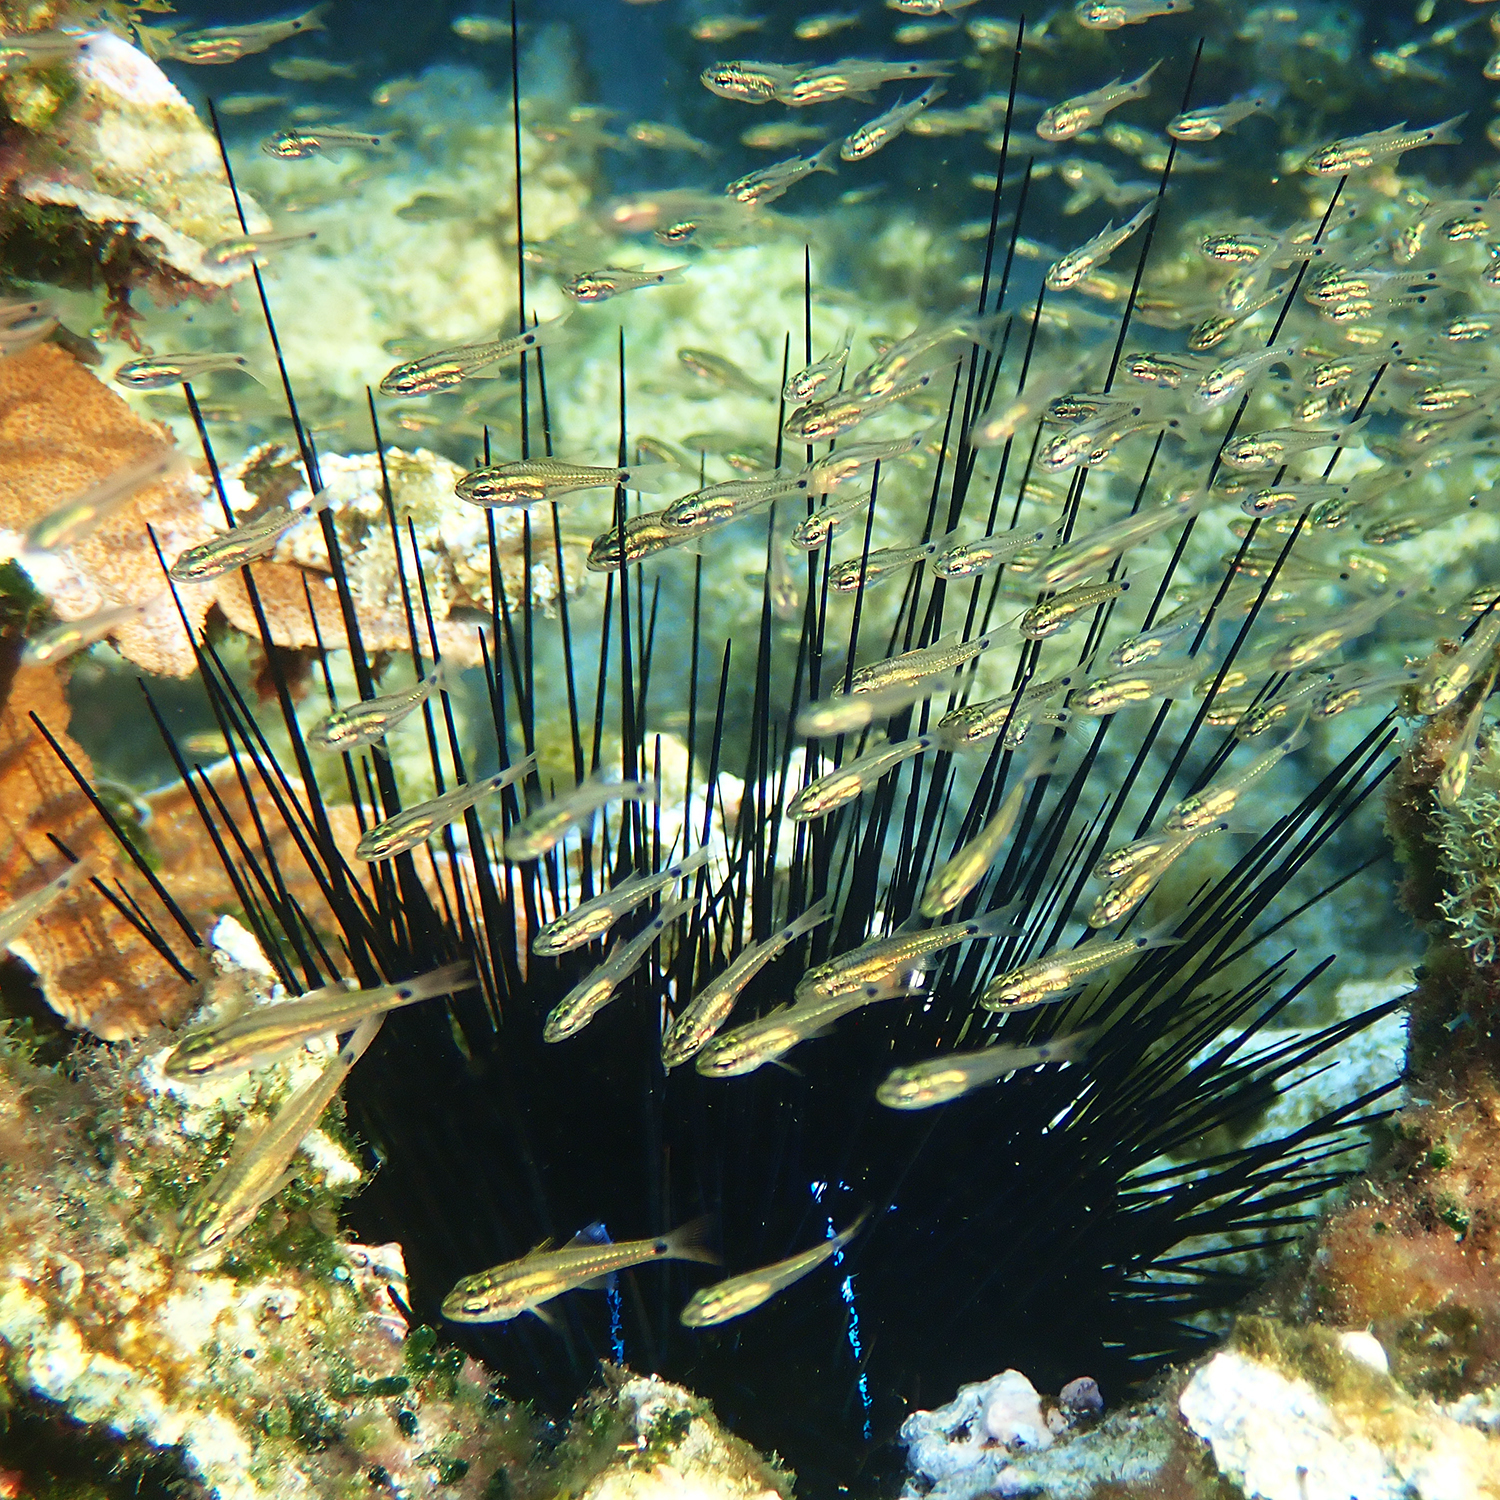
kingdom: Animalia
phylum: Chordata
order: Perciformes
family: Apogonidae
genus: Ostorhinchus
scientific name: Ostorhinchus norfolcensis
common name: Norfolk cardinalfish
